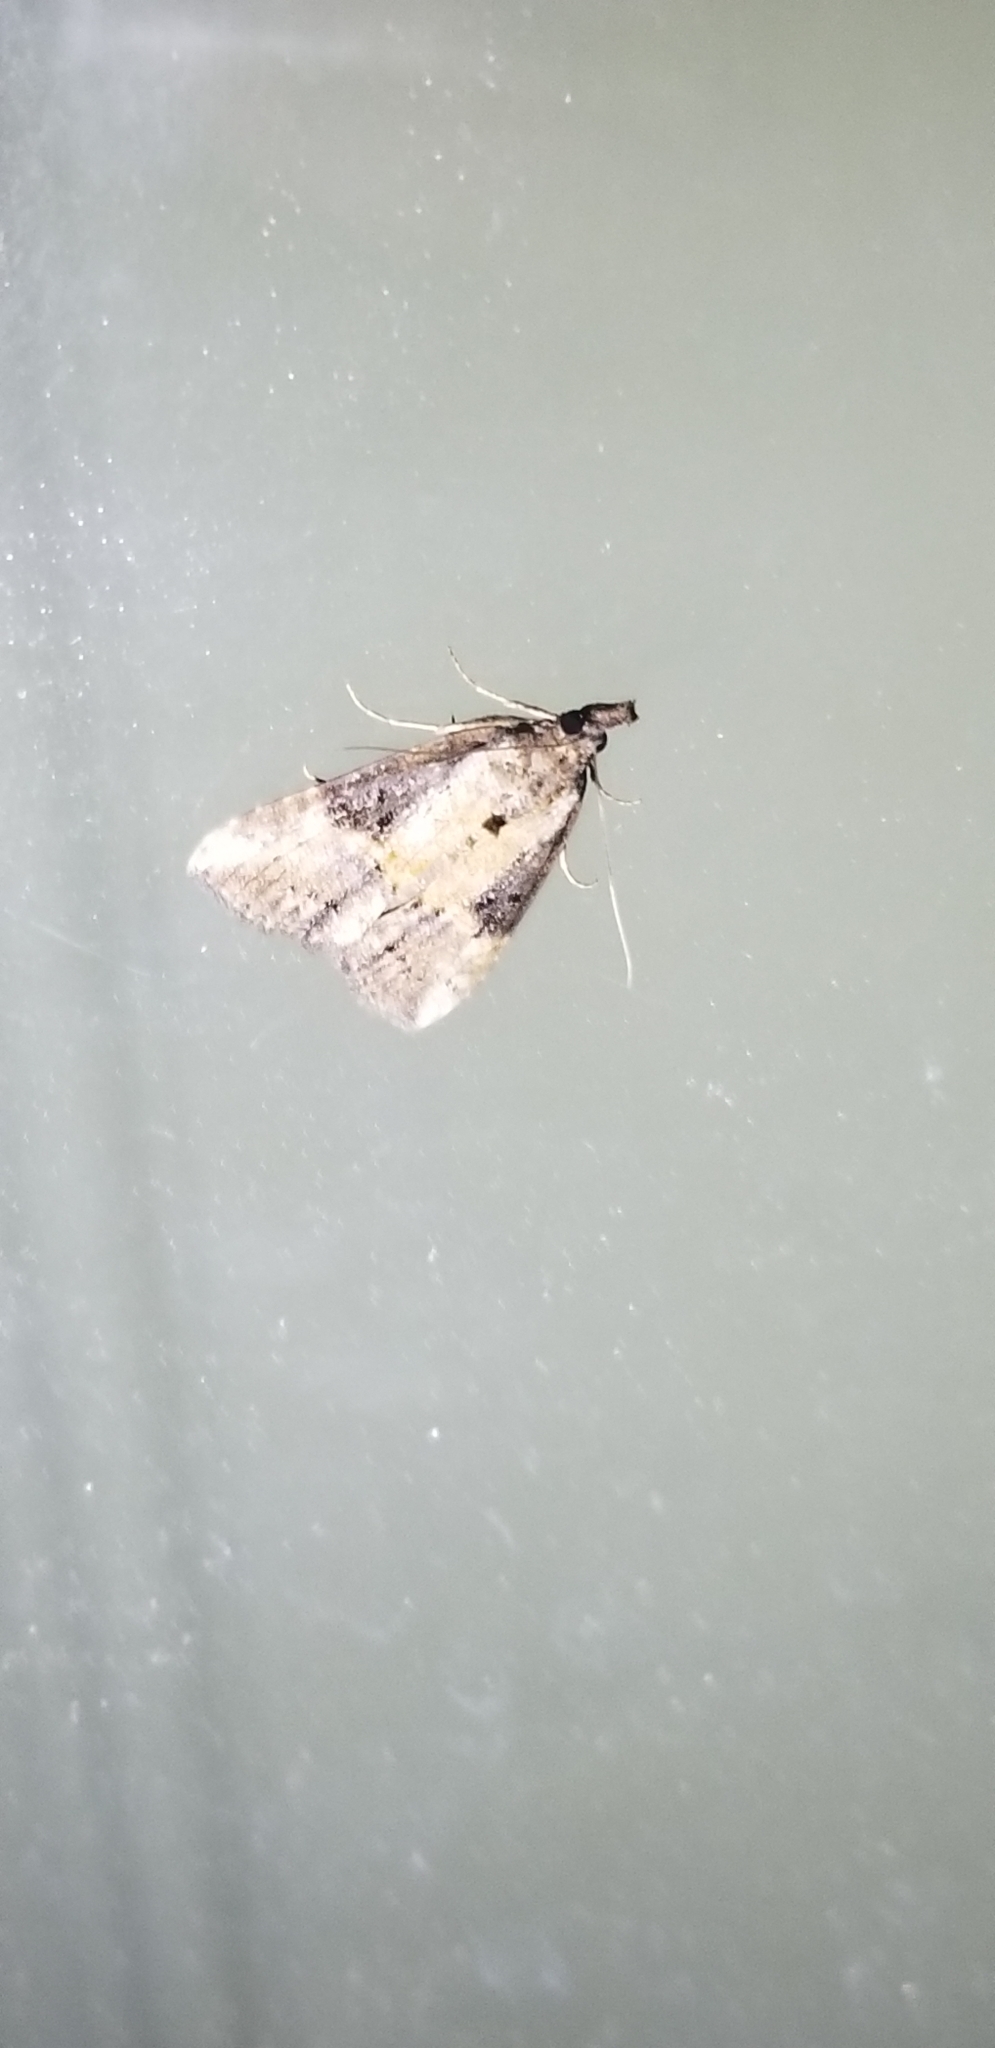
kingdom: Animalia
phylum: Arthropoda
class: Insecta
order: Lepidoptera
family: Erebidae
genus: Hypena
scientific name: Hypena scabra
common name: Green cloverworm
